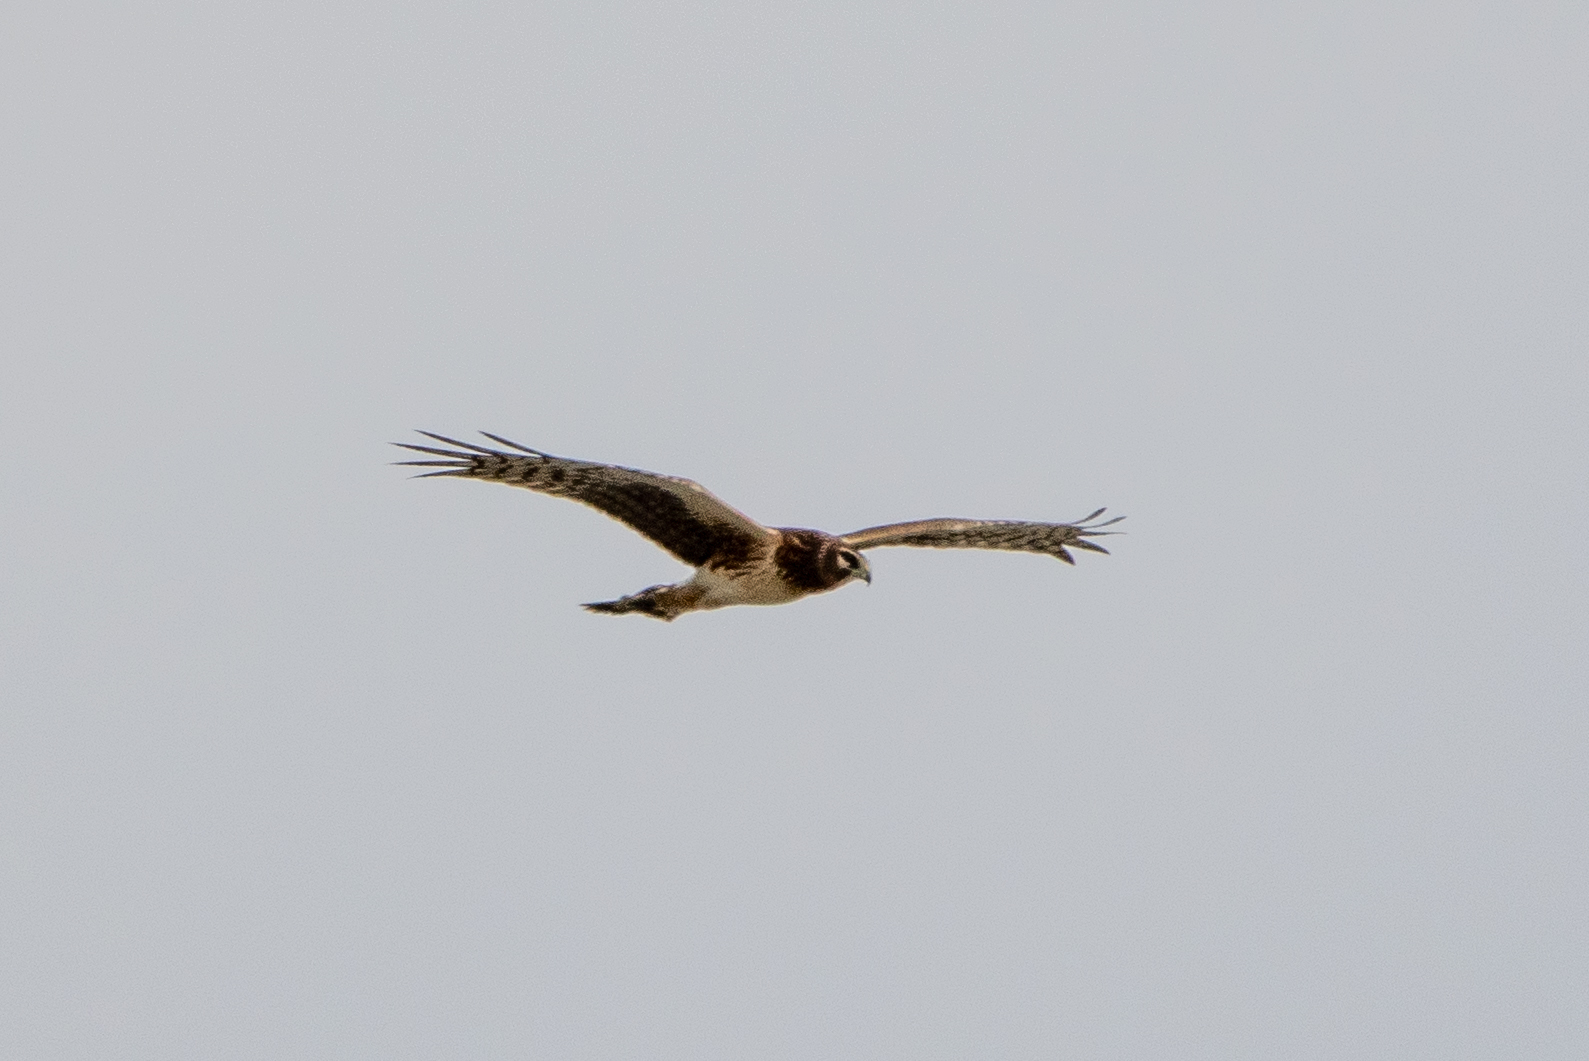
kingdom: Animalia
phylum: Chordata
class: Aves
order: Accipitriformes
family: Accipitridae
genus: Circus
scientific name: Circus cyaneus
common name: Hen harrier
